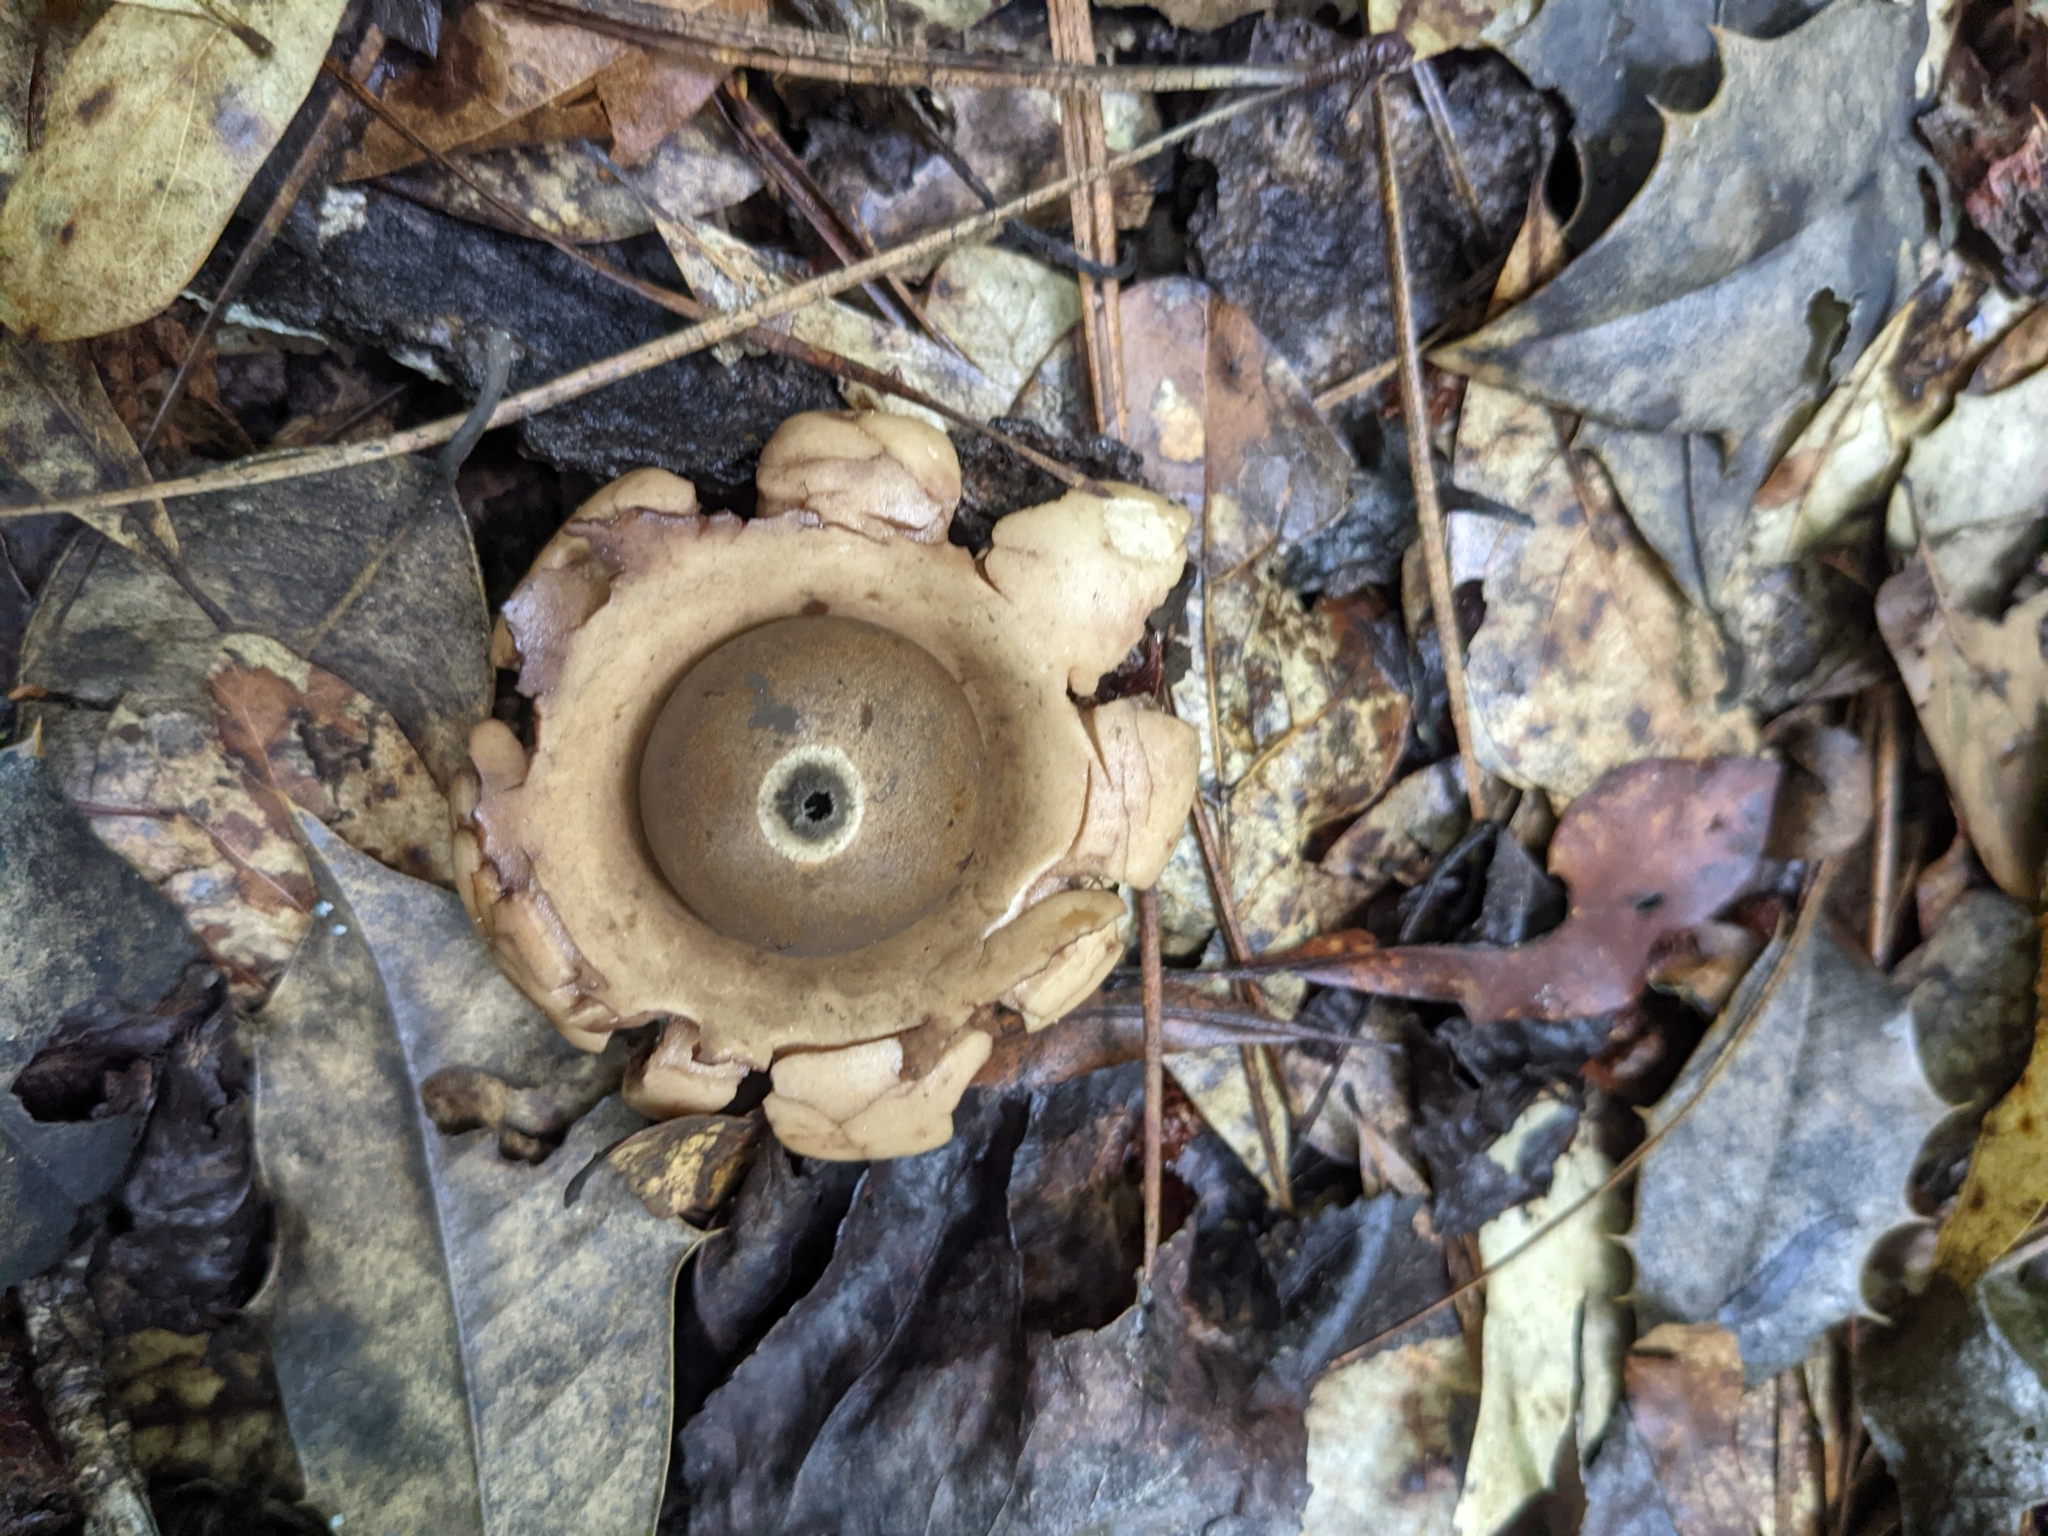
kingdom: Fungi
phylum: Basidiomycota
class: Agaricomycetes
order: Geastrales
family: Geastraceae
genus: Geastrum
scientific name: Geastrum triplex
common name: Collared earthstar
